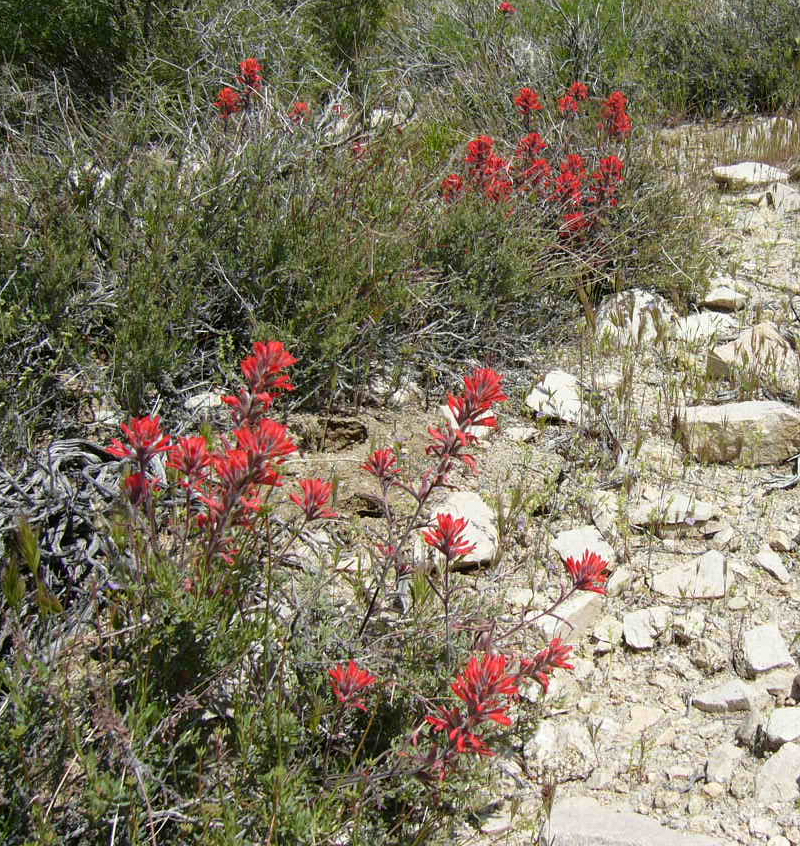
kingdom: Plantae
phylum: Tracheophyta
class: Magnoliopsida
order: Lamiales
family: Orobanchaceae
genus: Castilleja
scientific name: Castilleja chromosa
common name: Desert paintbrush
